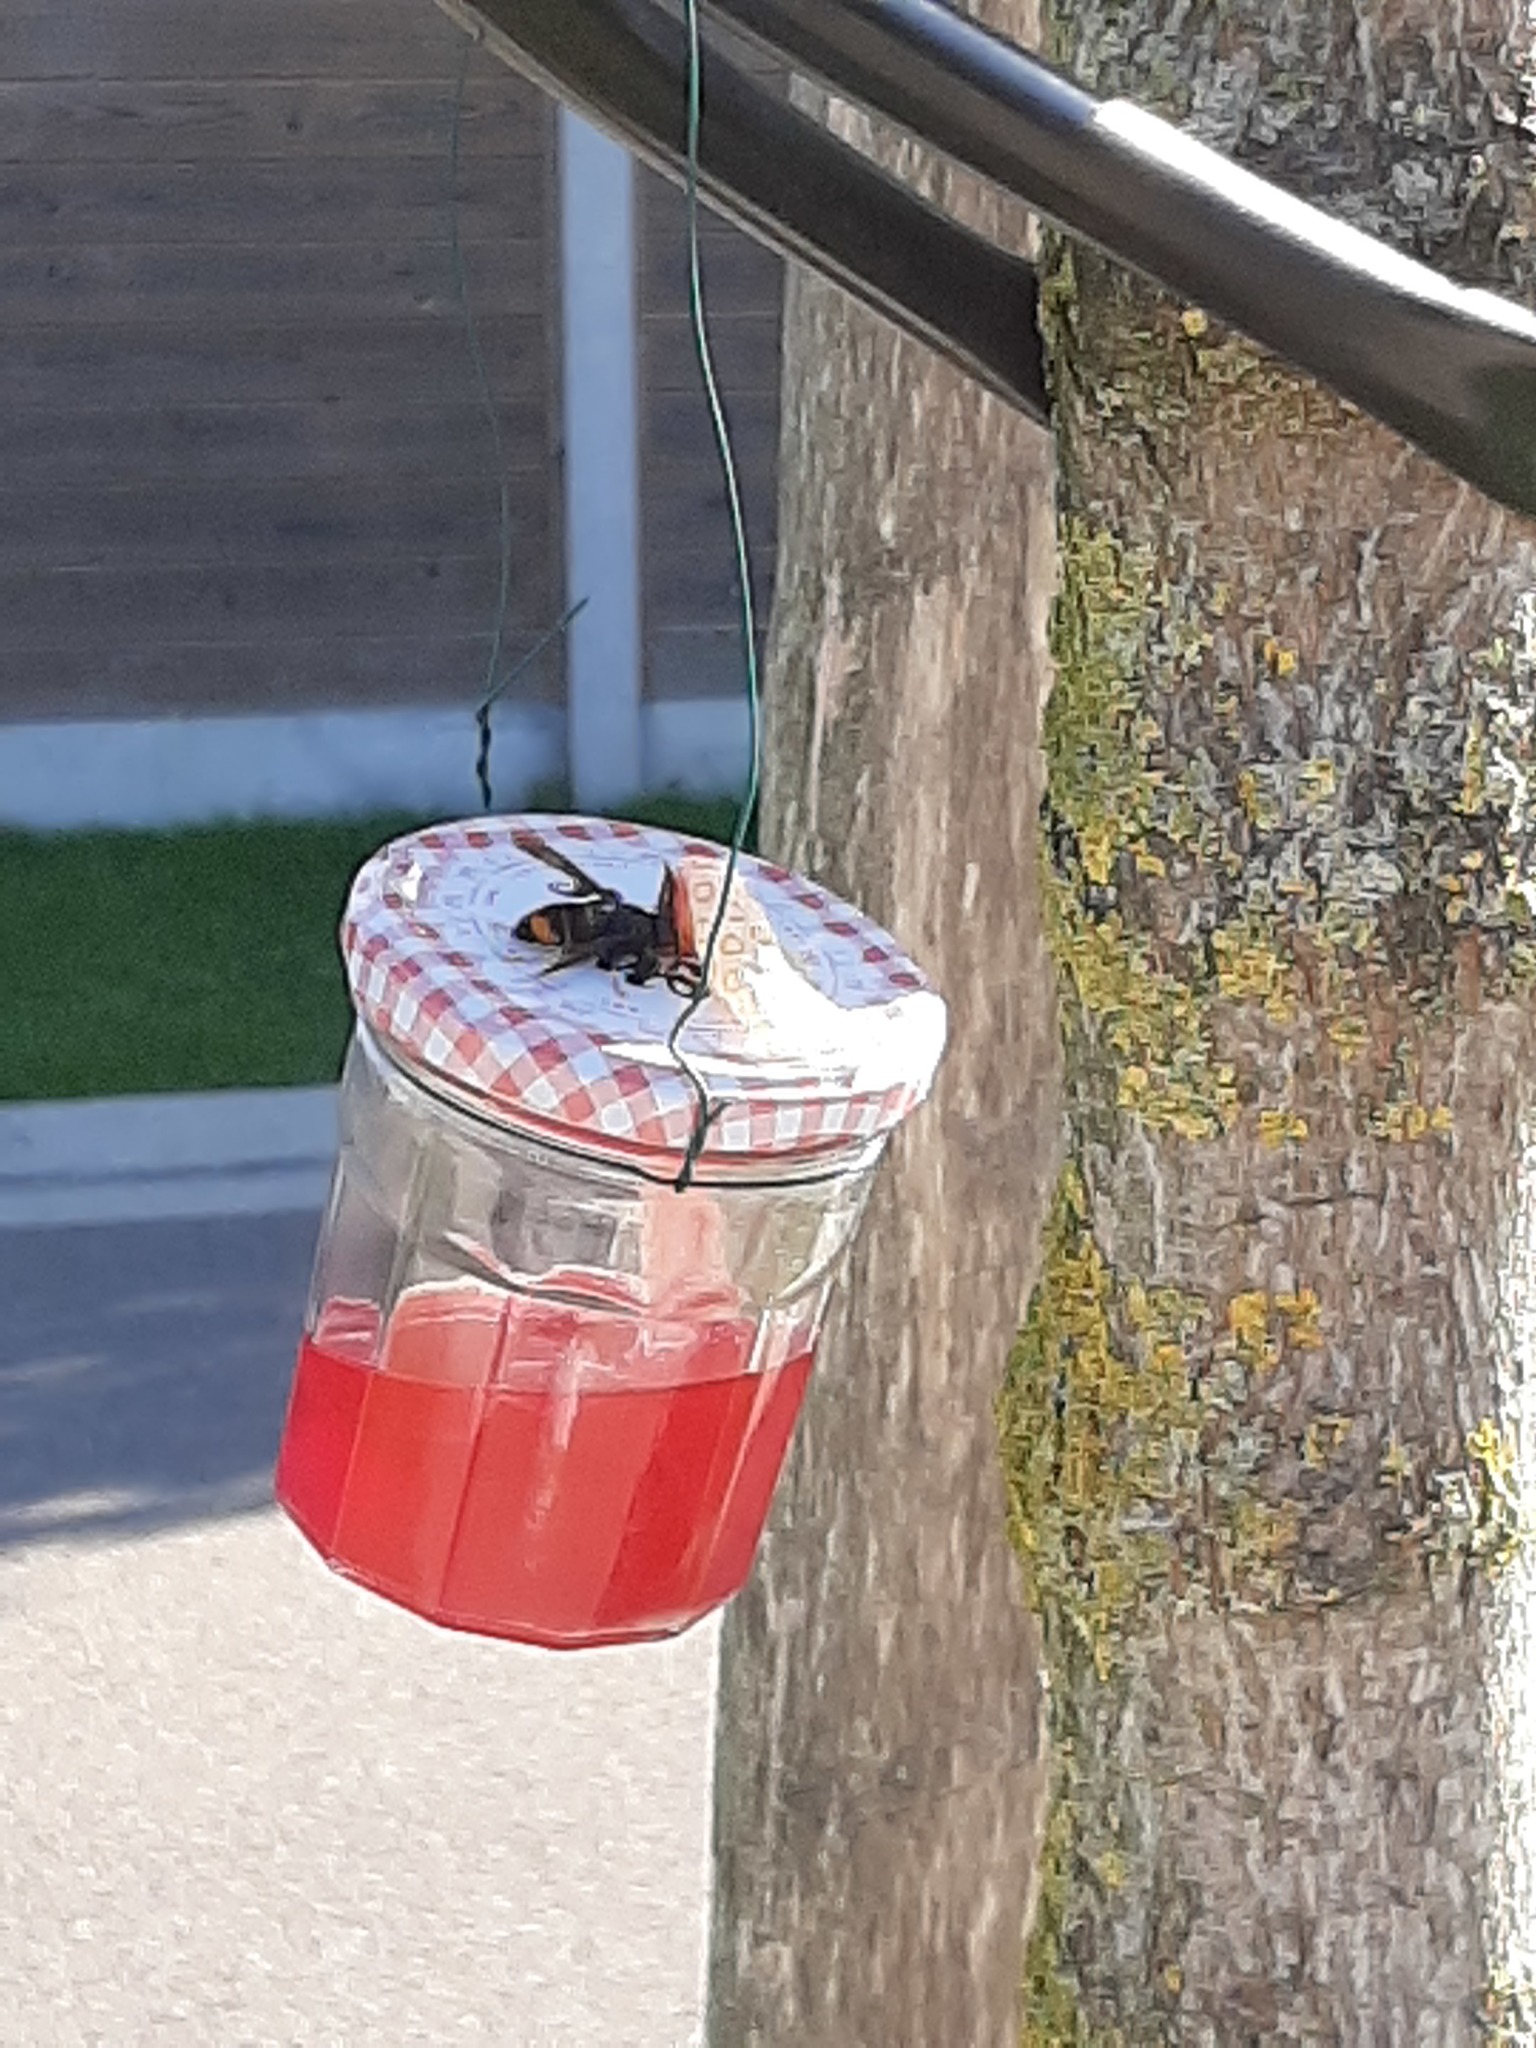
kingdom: Animalia
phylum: Arthropoda
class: Insecta
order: Hymenoptera
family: Vespidae
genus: Vespa
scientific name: Vespa velutina
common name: Asian hornet
